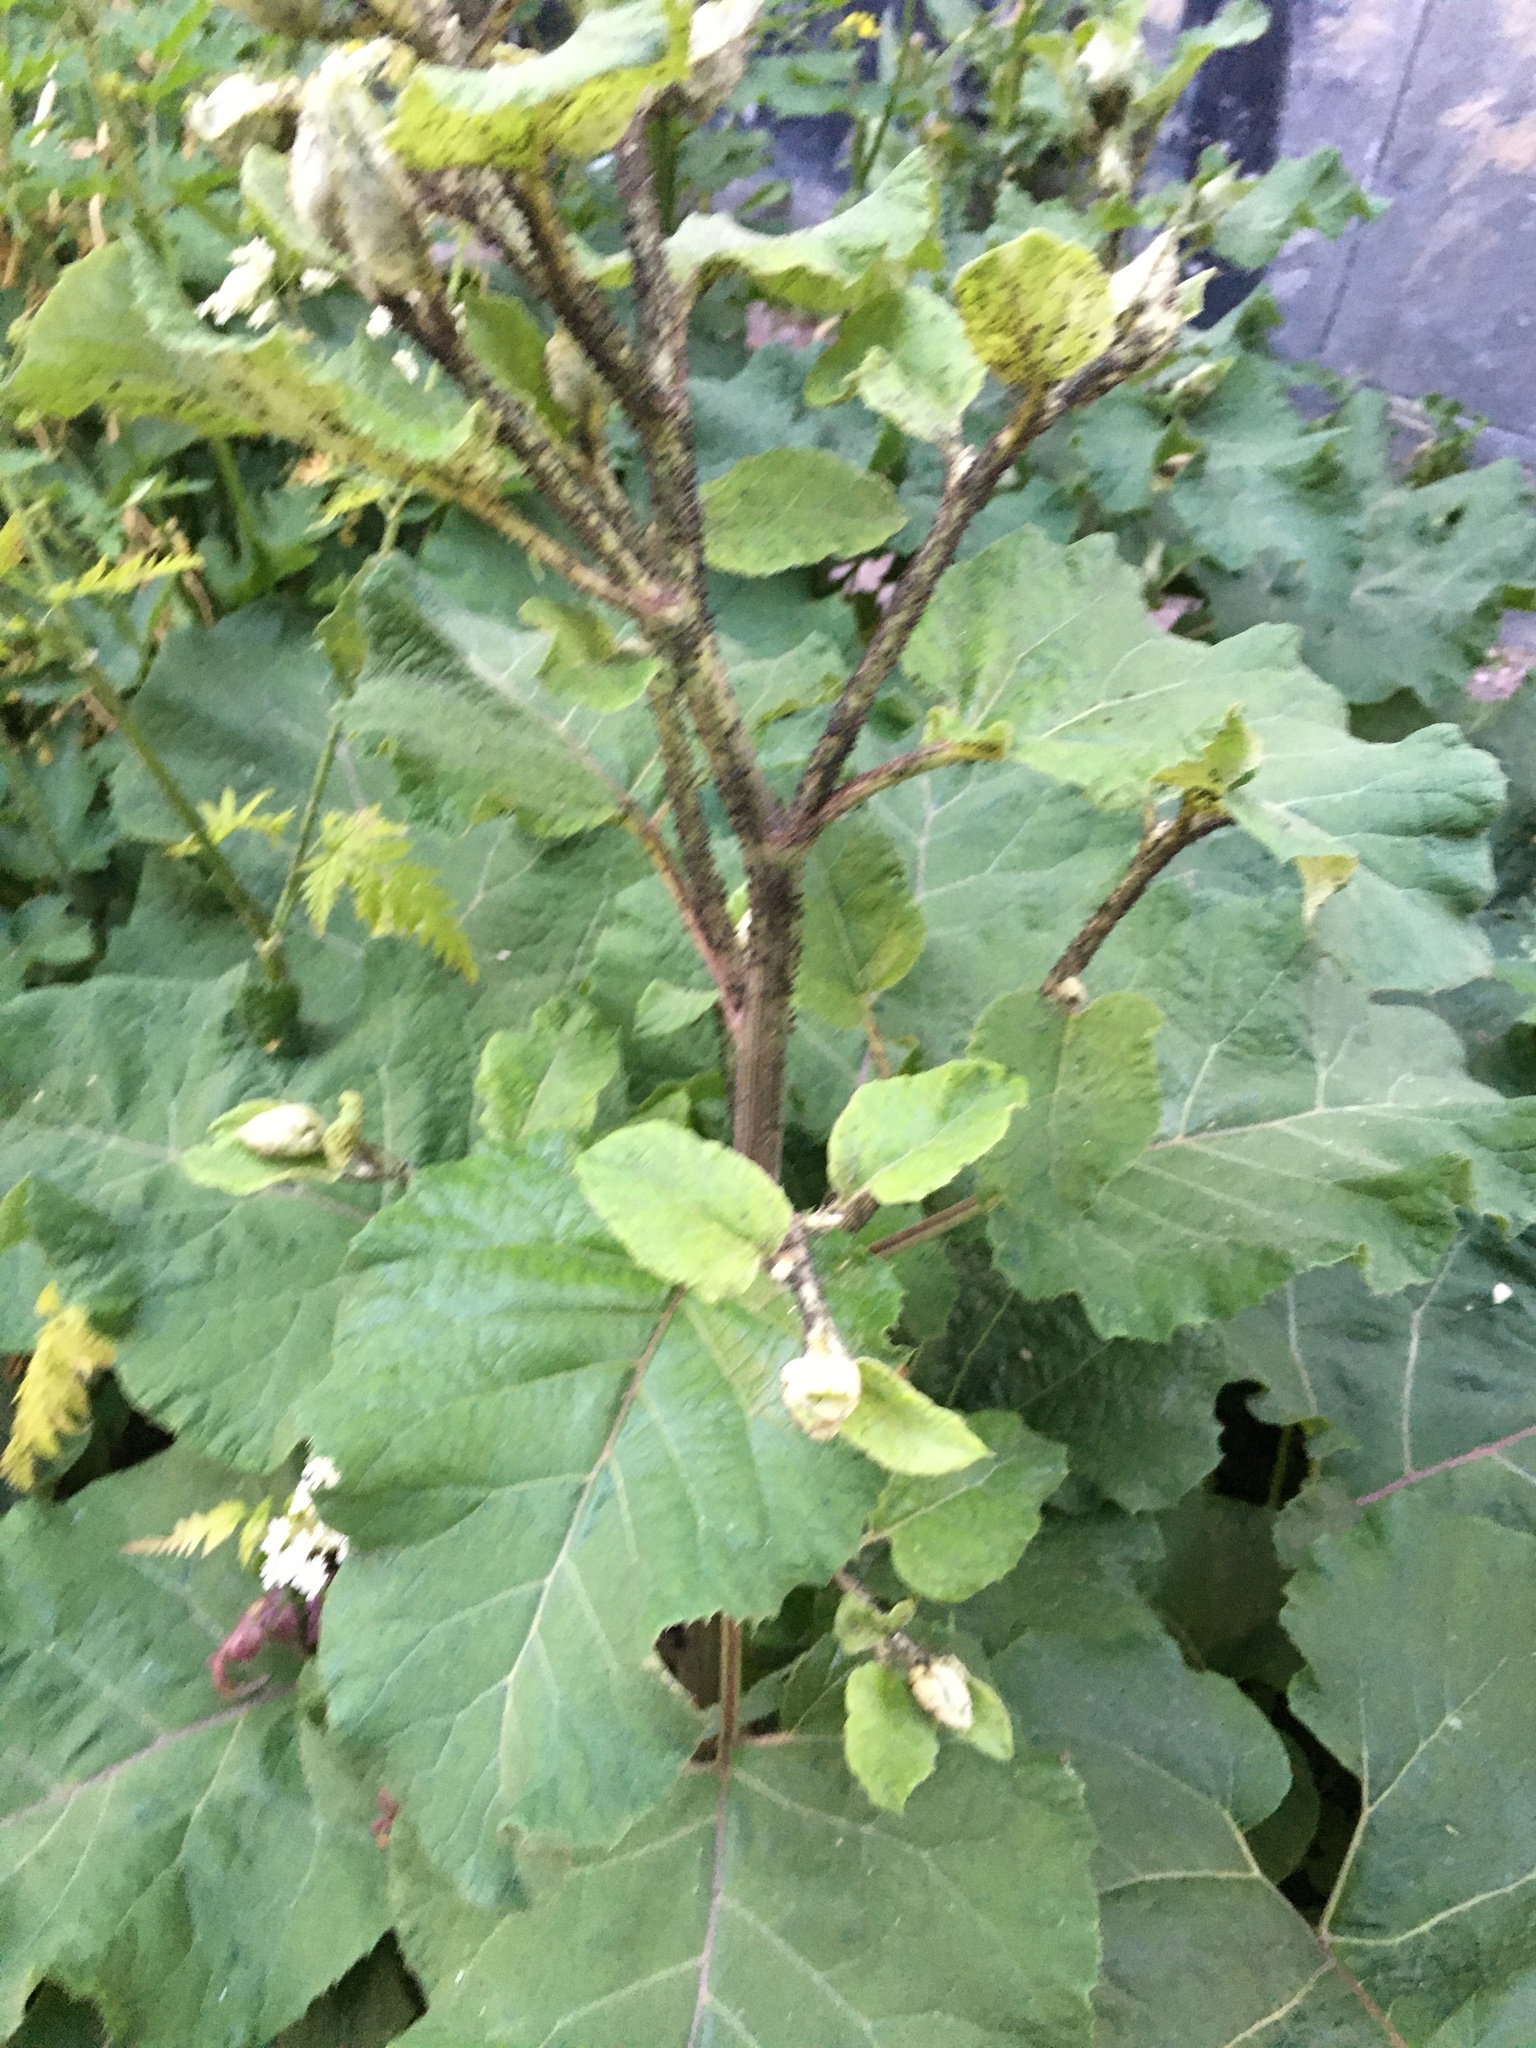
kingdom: Plantae
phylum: Tracheophyta
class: Magnoliopsida
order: Asterales
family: Asteraceae
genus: Arctium
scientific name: Arctium tomentosum
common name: Woolly burdock
